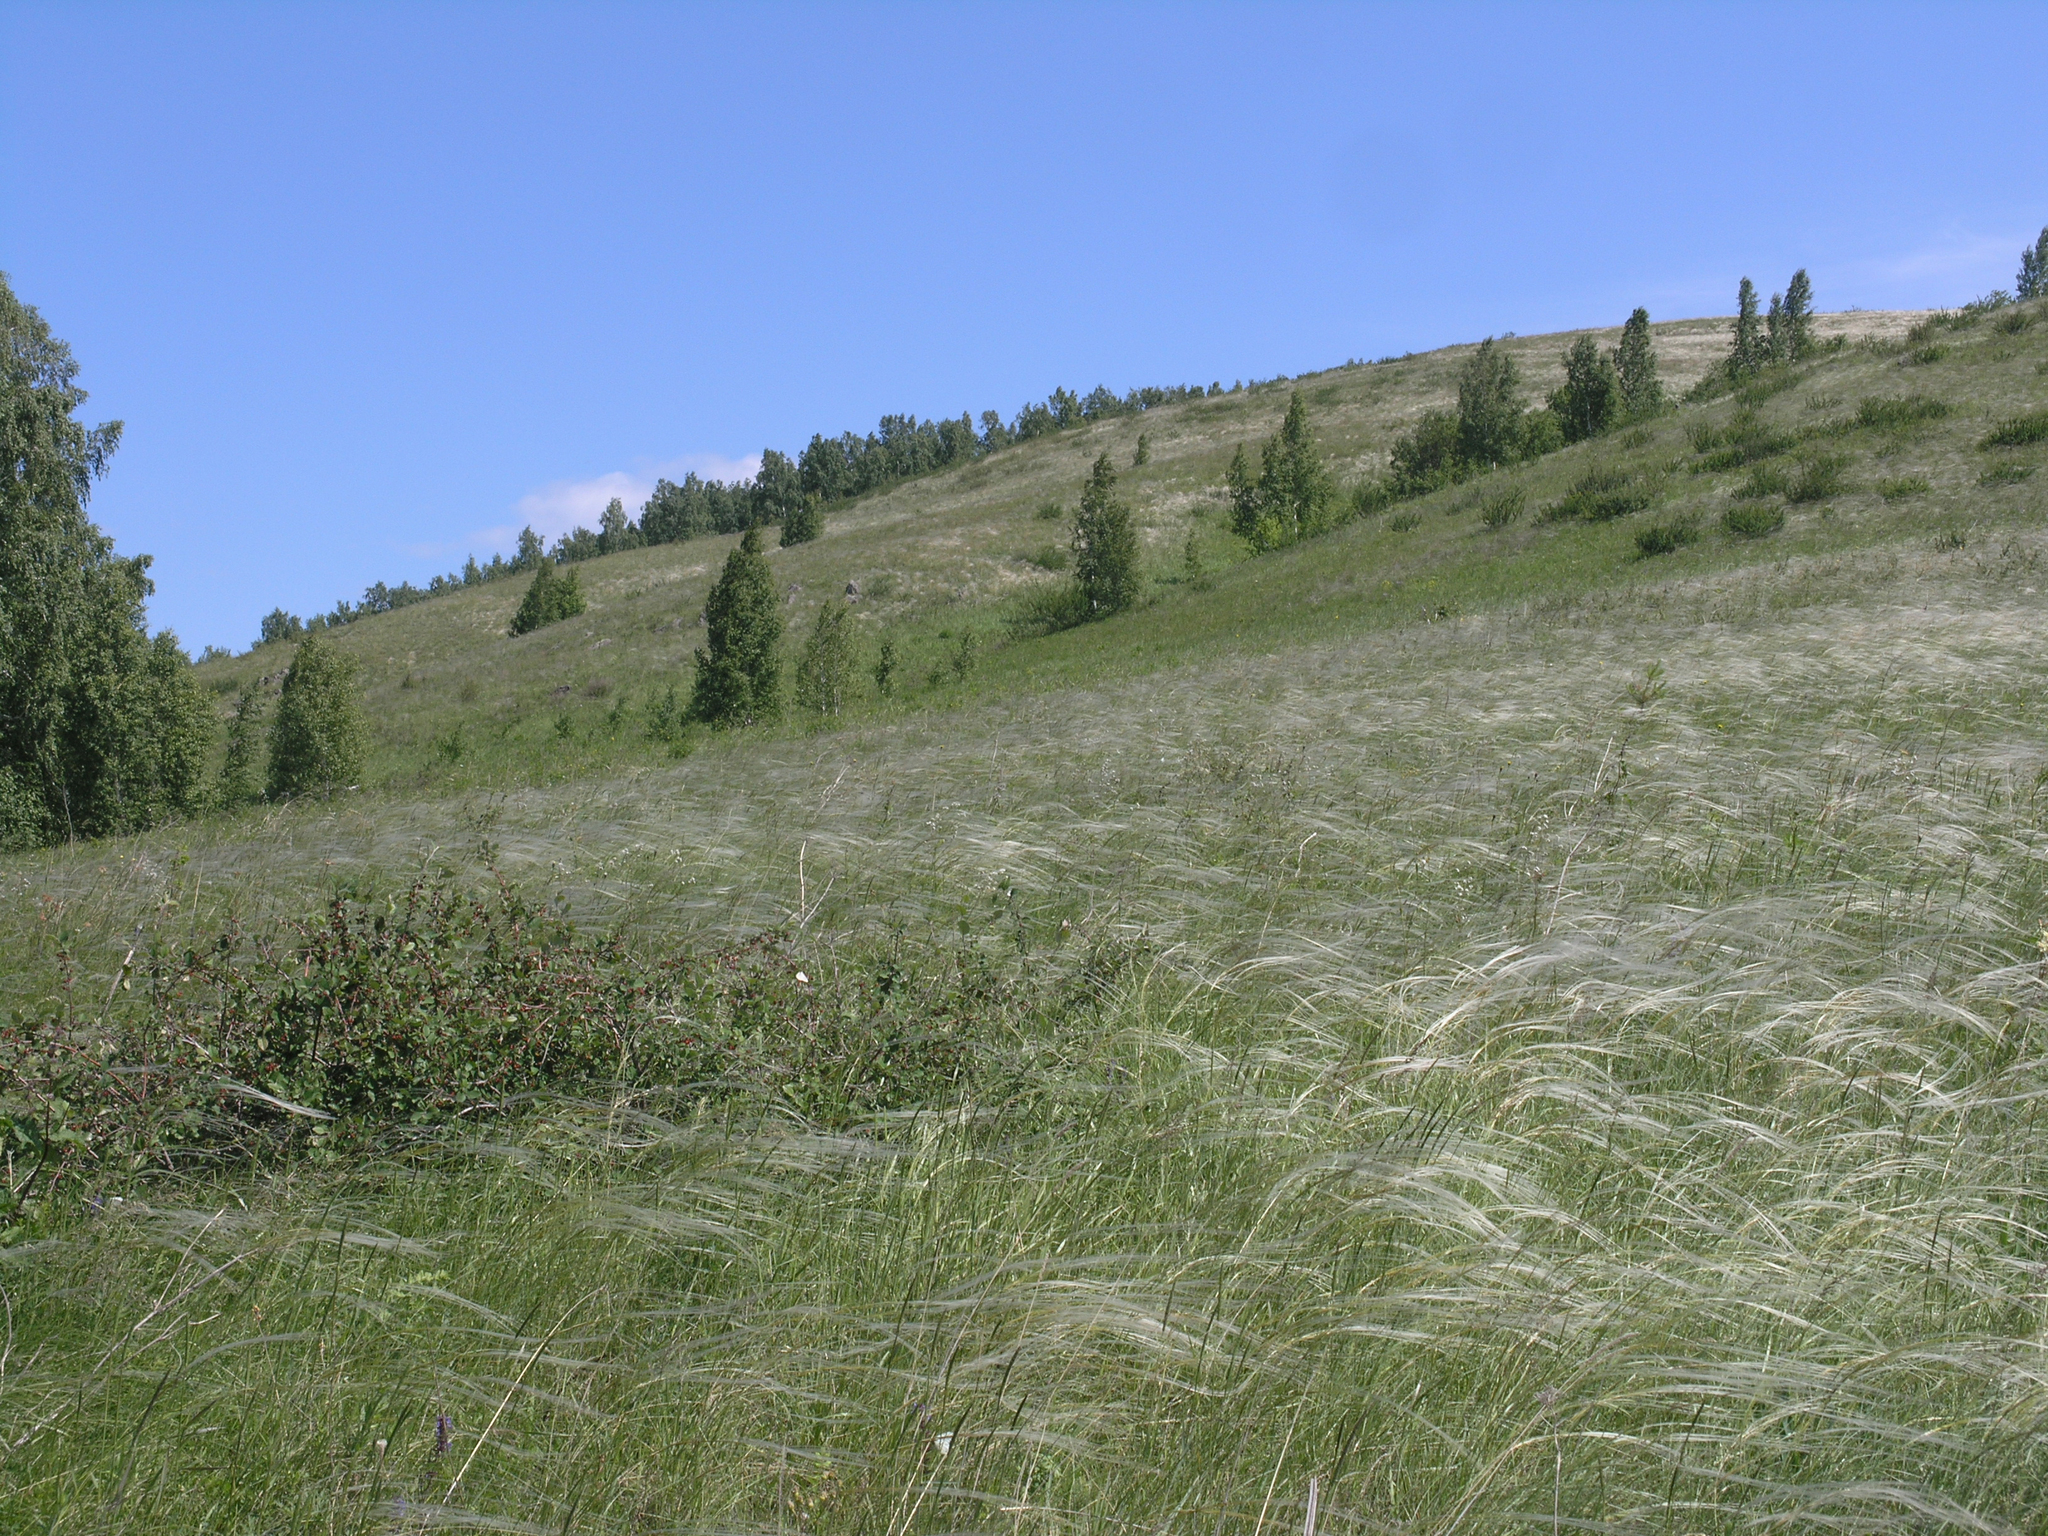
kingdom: Plantae
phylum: Tracheophyta
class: Liliopsida
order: Poales
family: Poaceae
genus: Stipa
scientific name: Stipa pennata
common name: European feather grass
